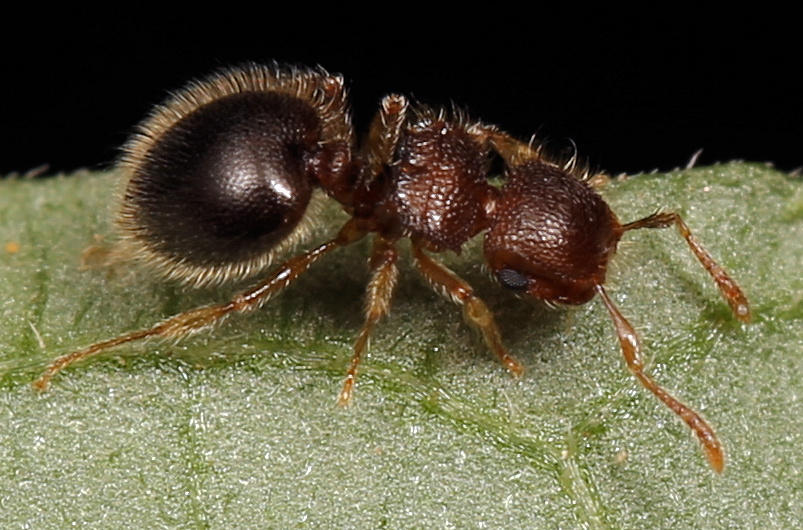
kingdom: Animalia
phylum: Arthropoda
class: Insecta
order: Hymenoptera
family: Formicidae
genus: Meranoplus
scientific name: Meranoplus inermis
